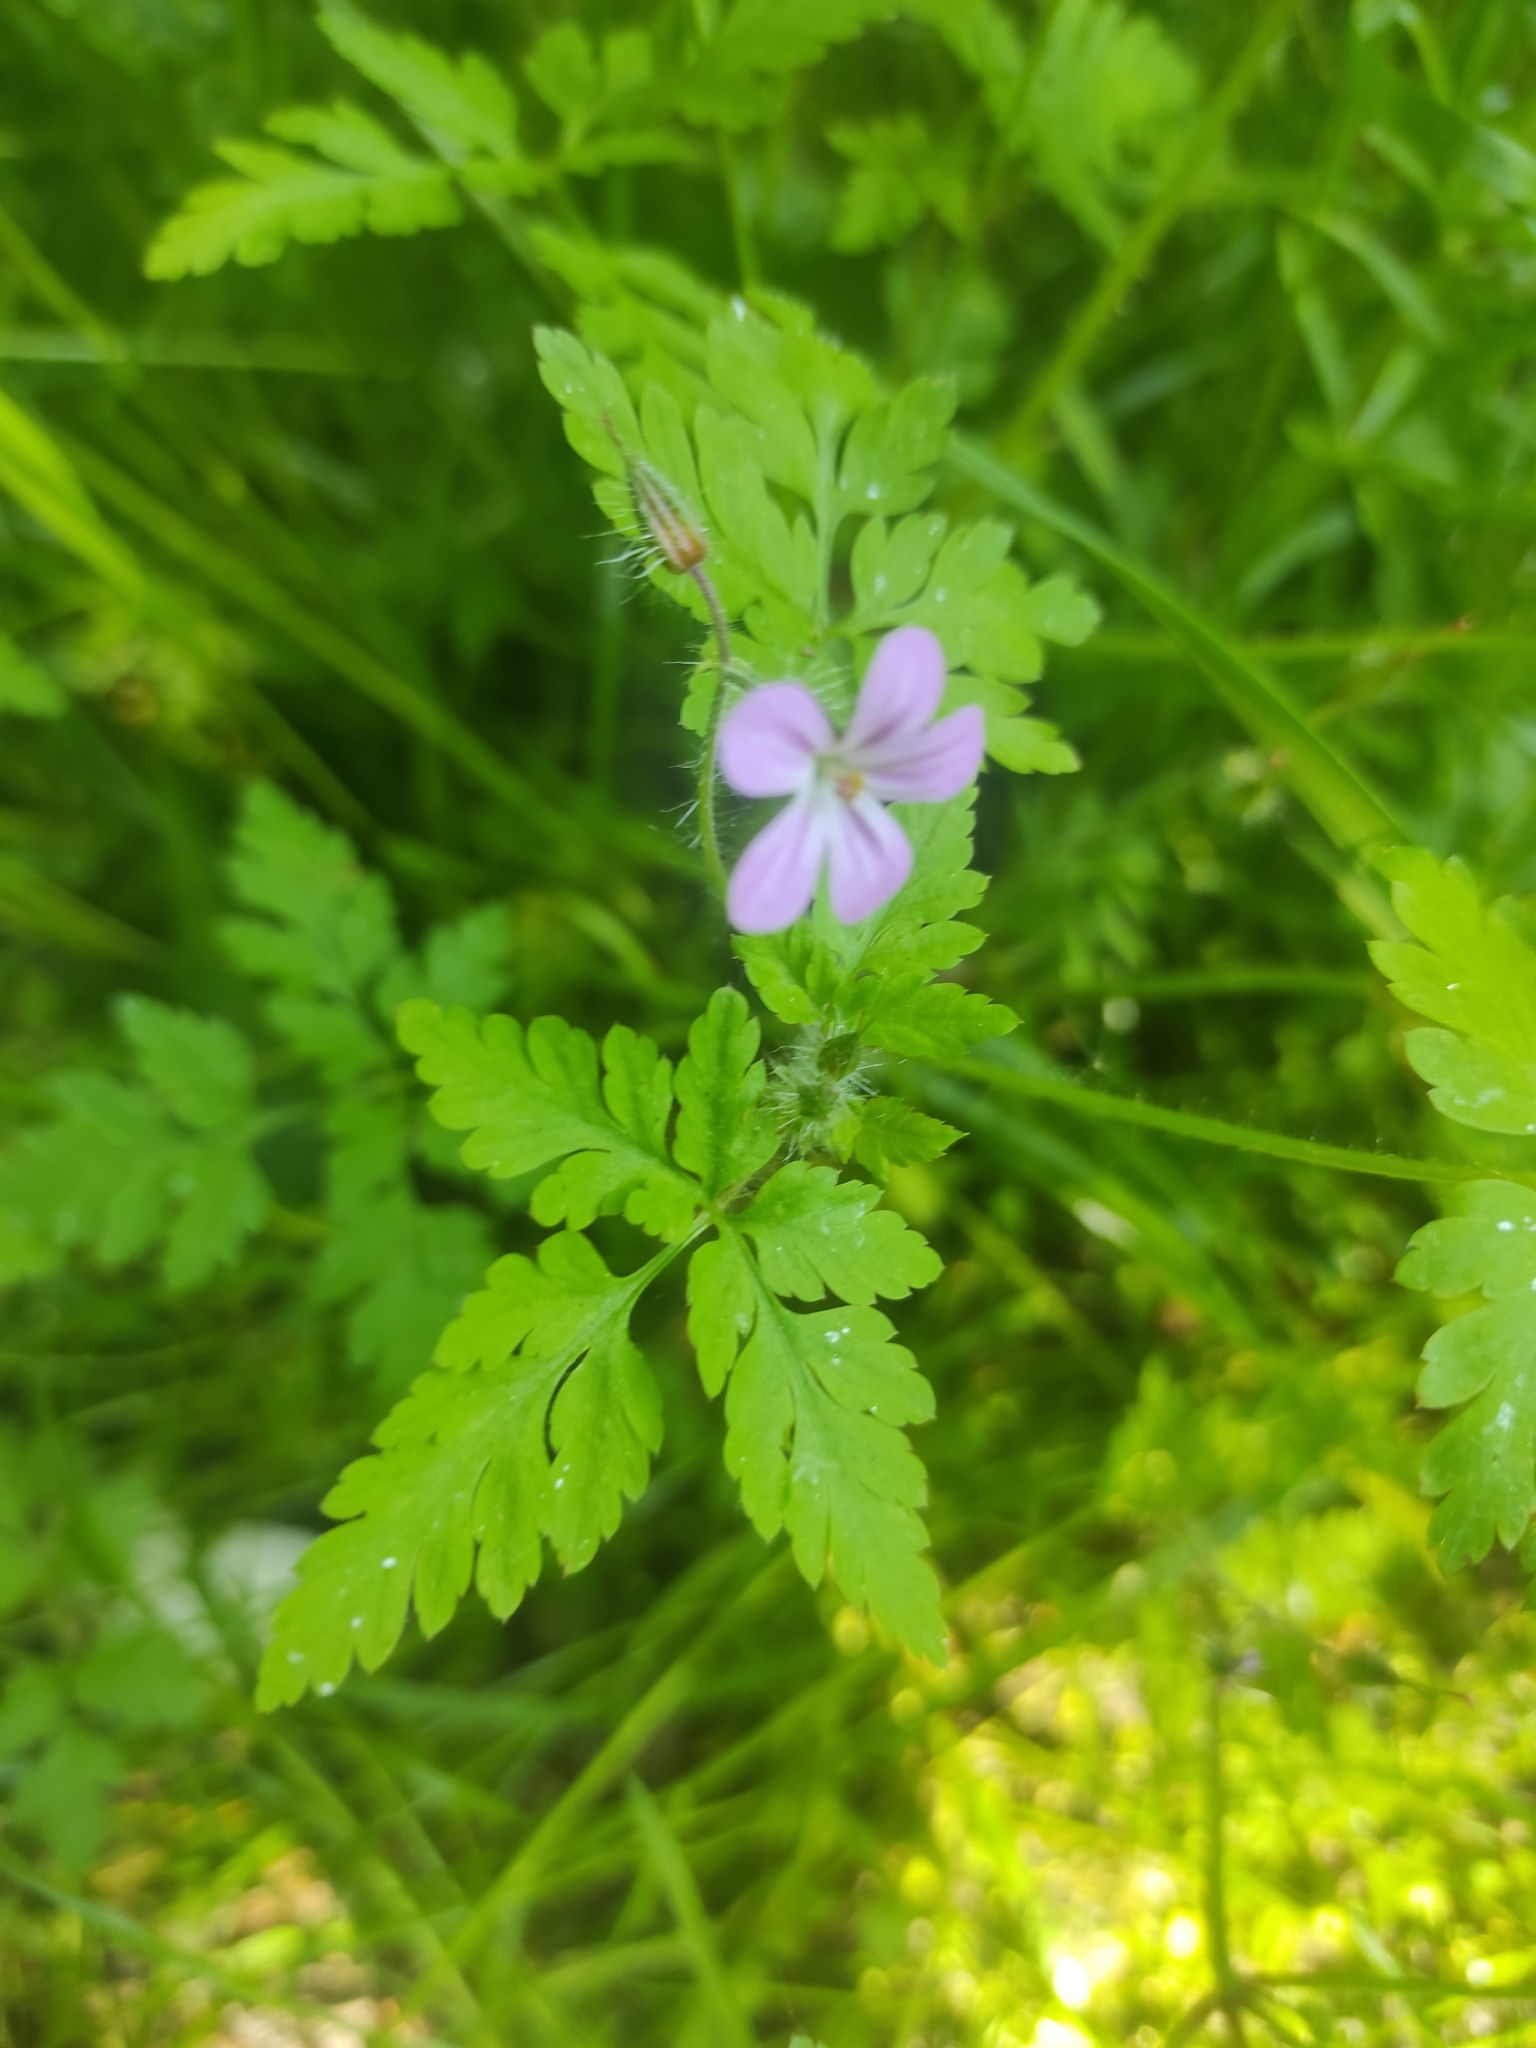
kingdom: Plantae
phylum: Tracheophyta
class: Magnoliopsida
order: Geraniales
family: Geraniaceae
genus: Geranium
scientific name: Geranium robertianum
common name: Herb-robert
